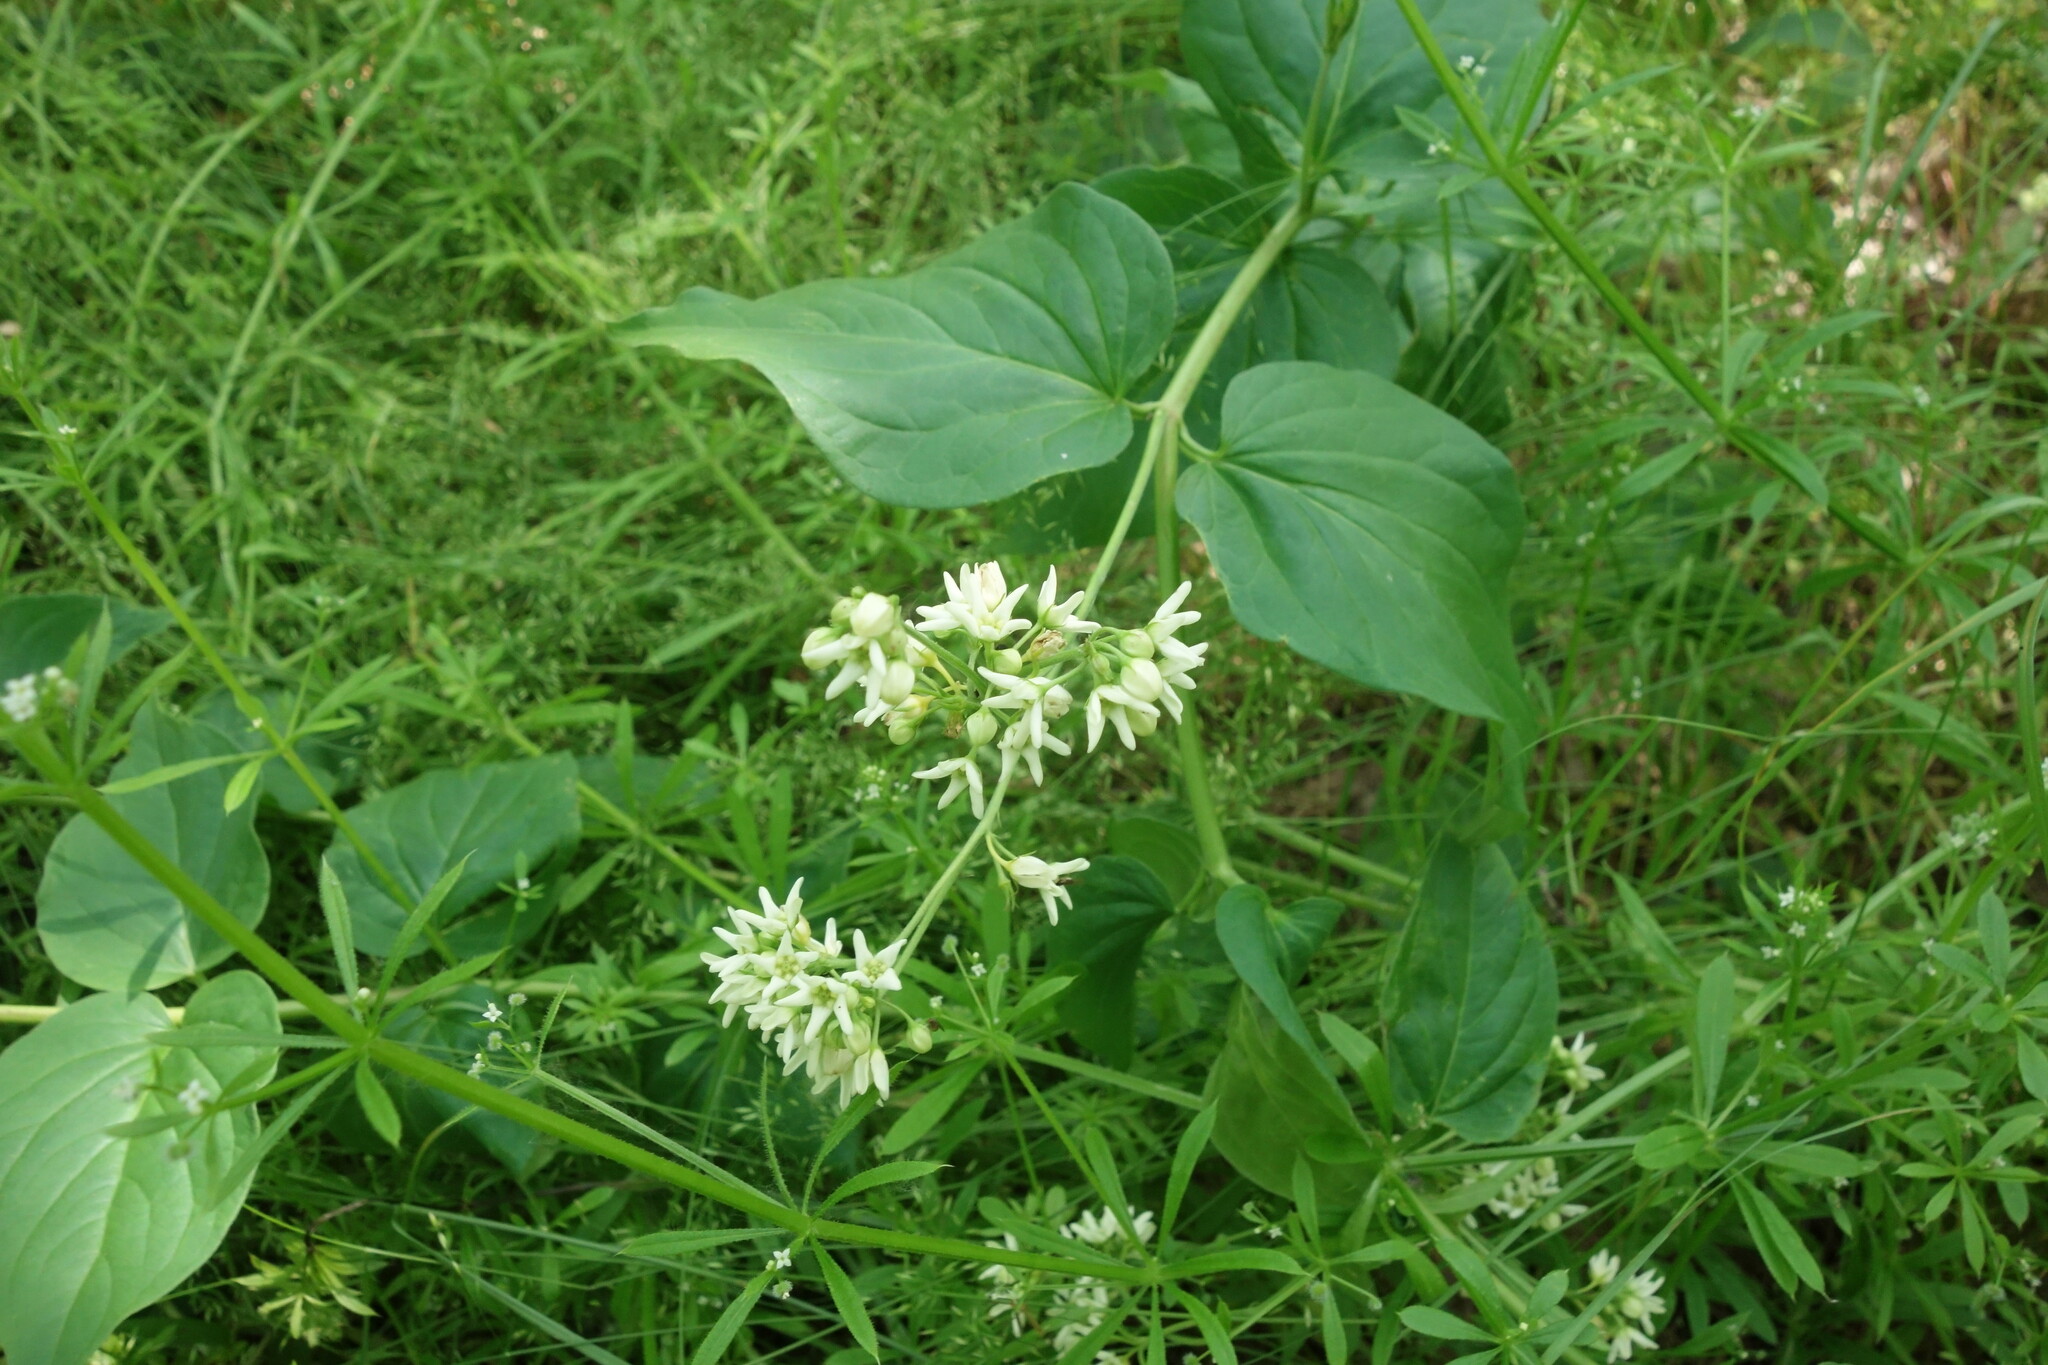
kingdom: Plantae
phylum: Tracheophyta
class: Magnoliopsida
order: Gentianales
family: Apocynaceae
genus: Vincetoxicum
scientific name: Vincetoxicum hirundinaria
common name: White swallowwort
